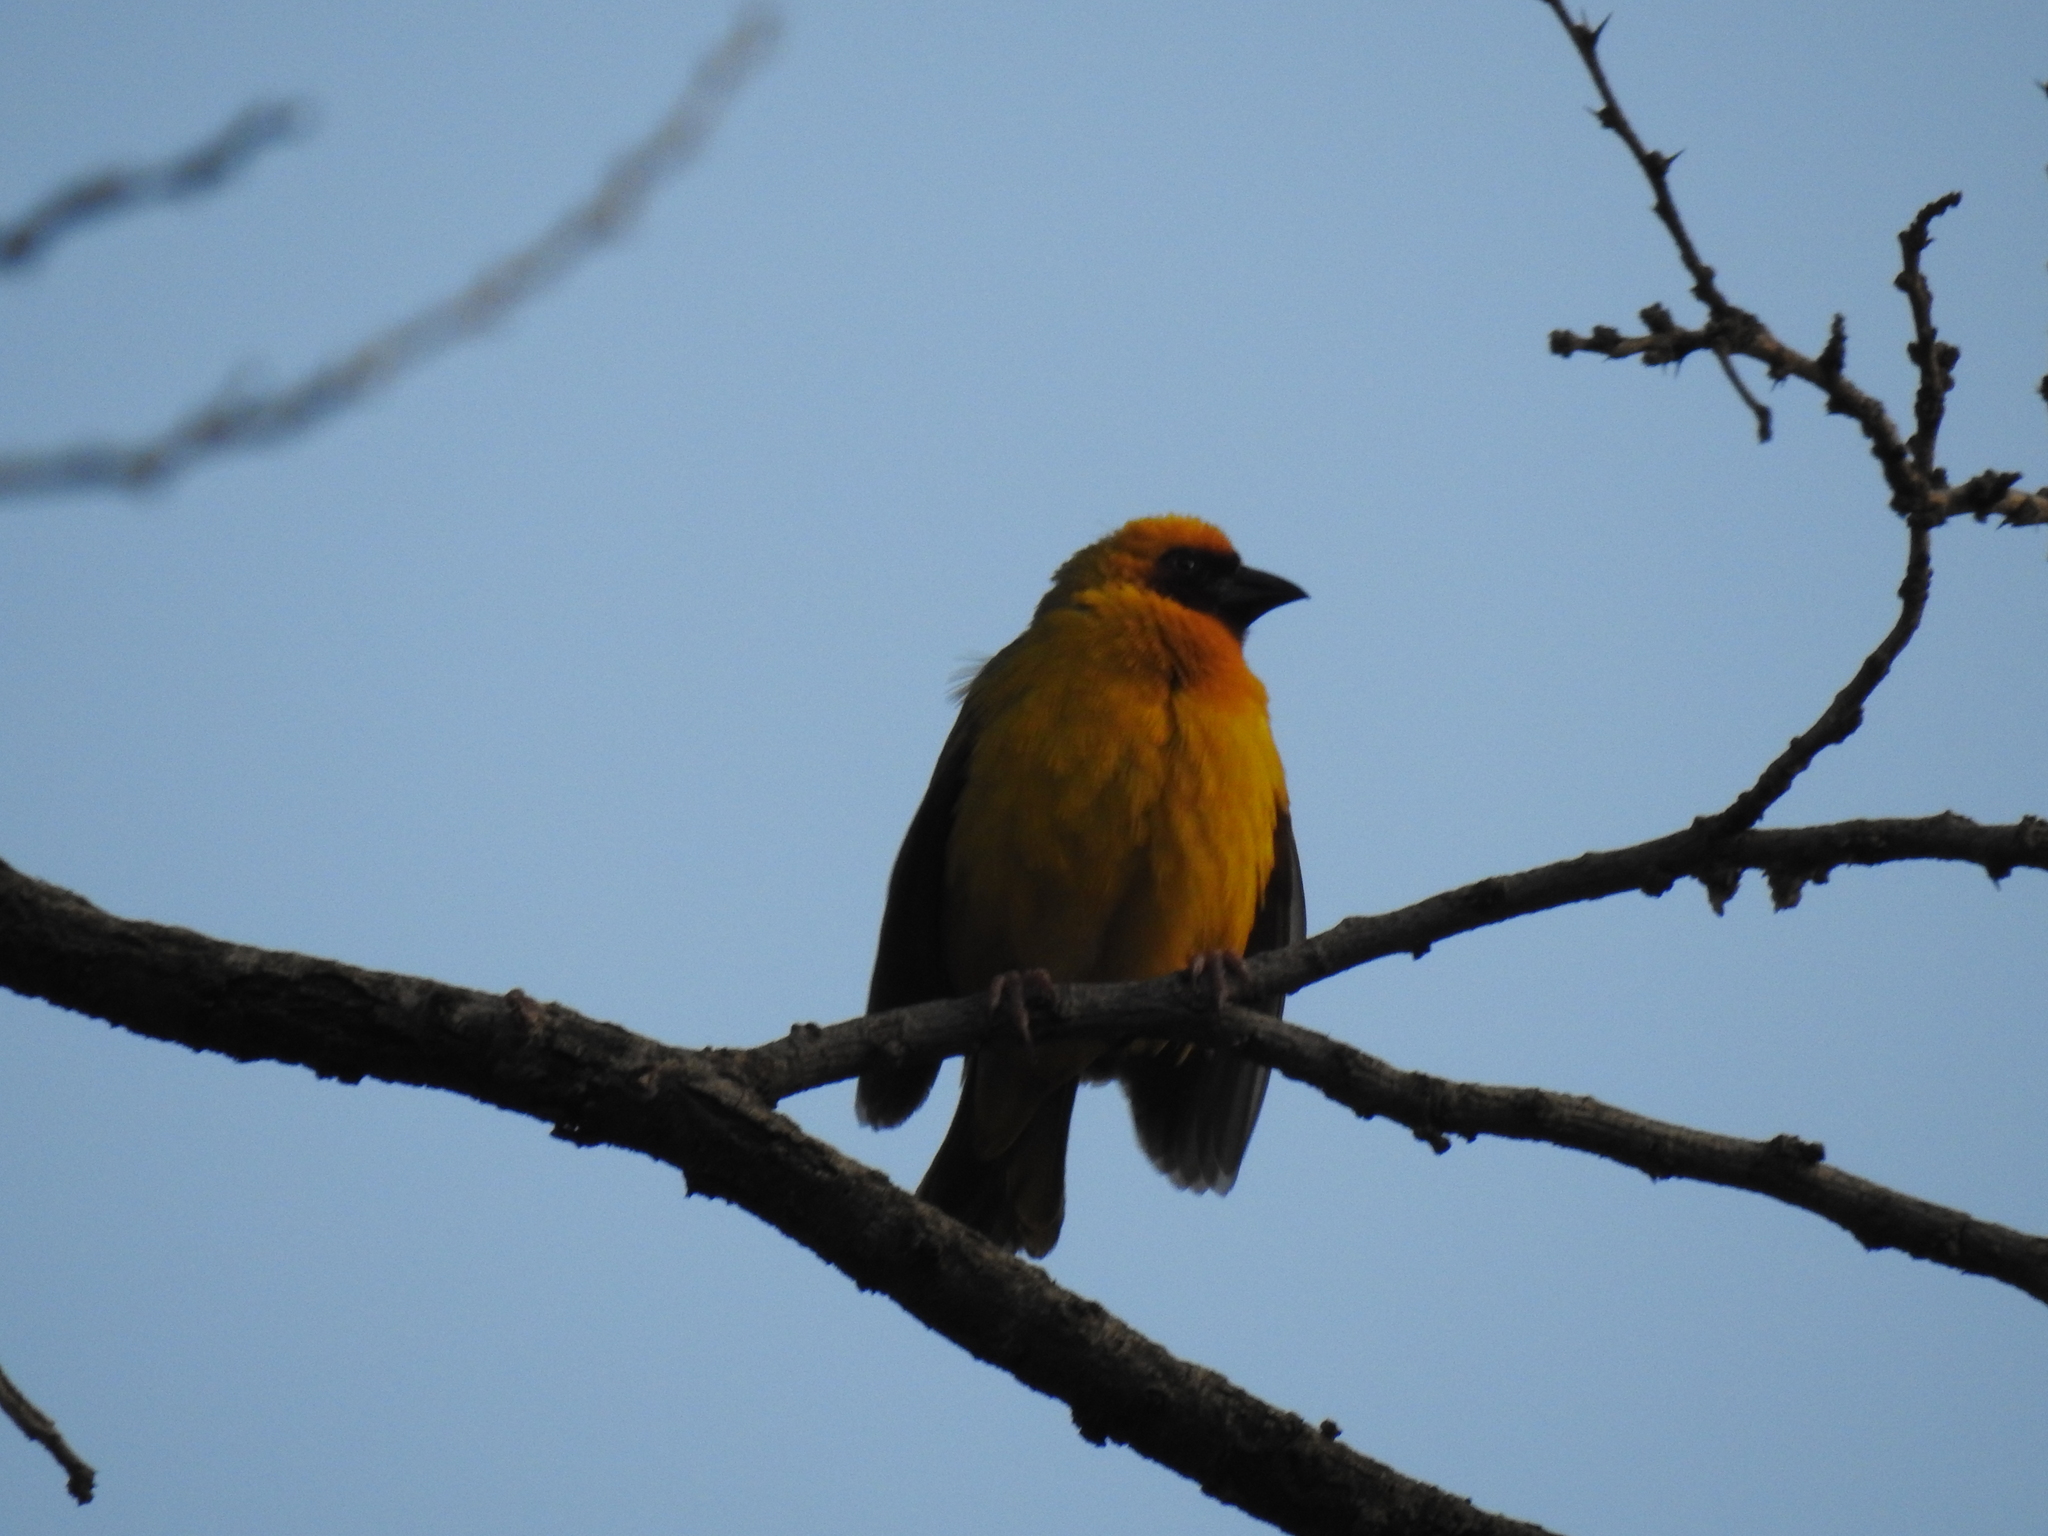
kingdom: Animalia
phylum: Chordata
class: Aves
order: Passeriformes
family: Ploceidae
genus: Ploceus
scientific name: Ploceus galbula
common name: Rüppell's weaver
